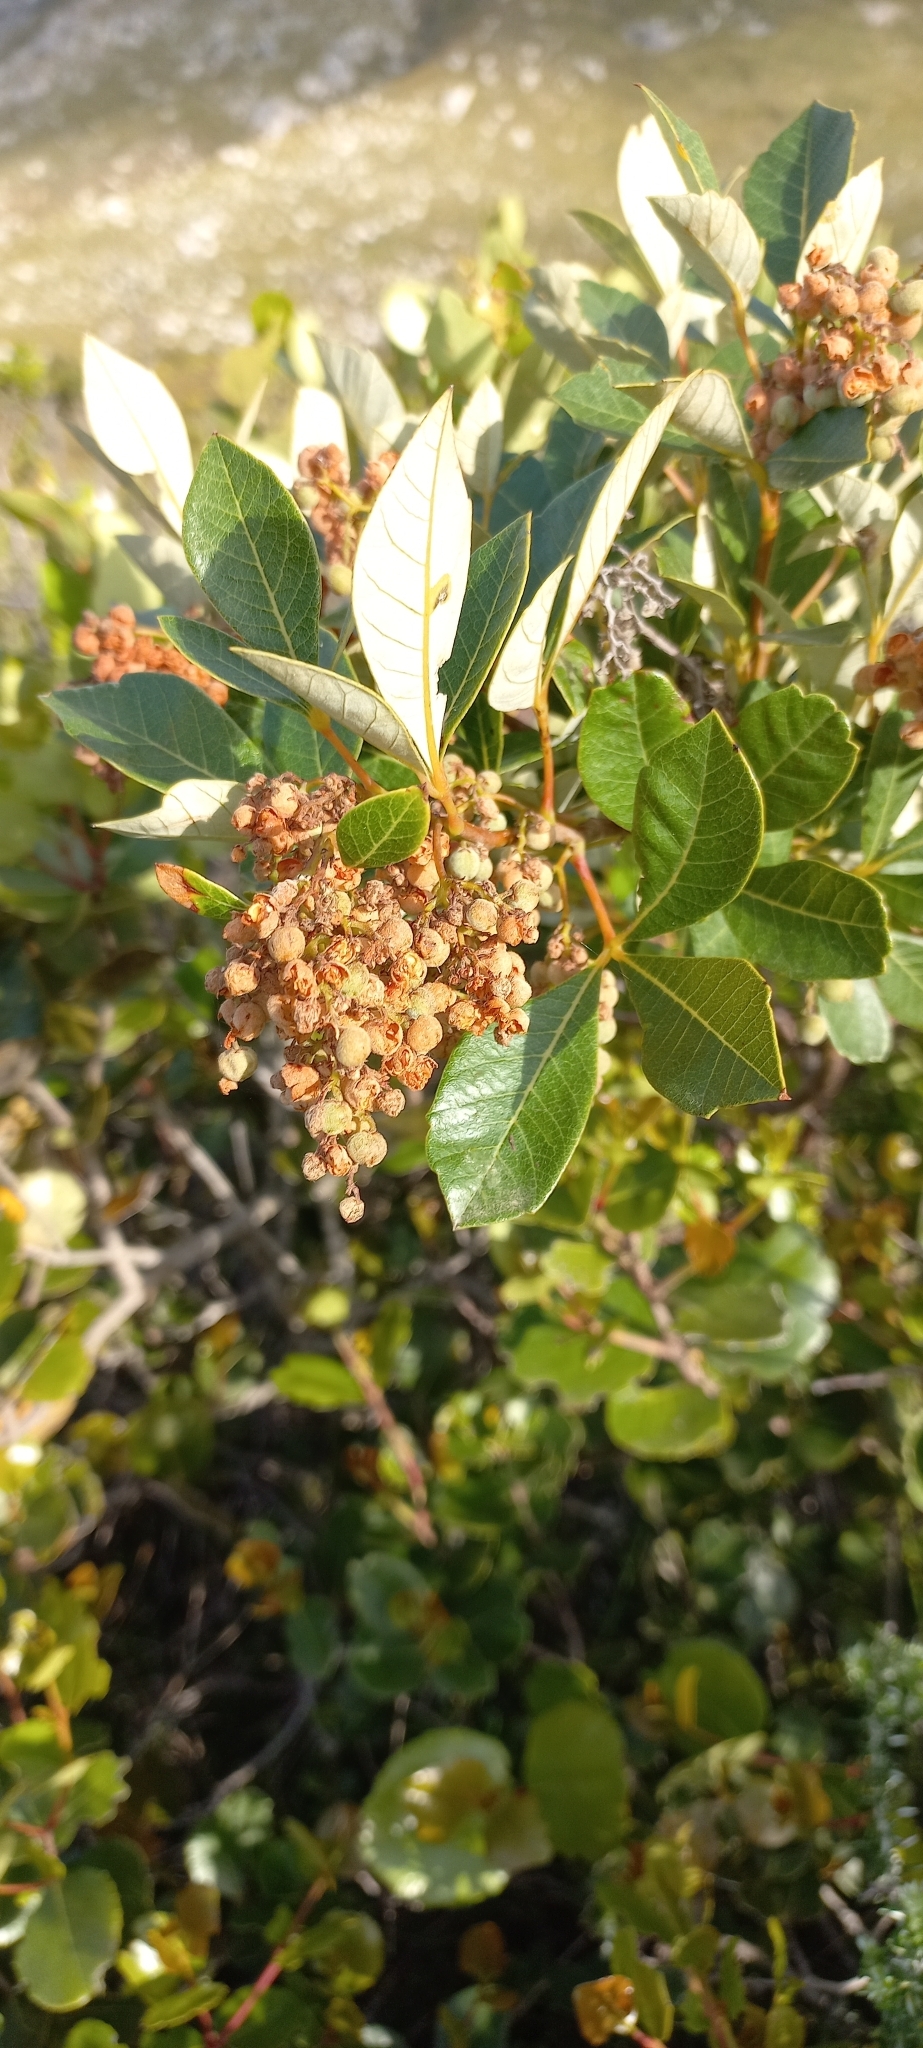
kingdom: Plantae
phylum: Tracheophyta
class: Magnoliopsida
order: Sapindales
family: Anacardiaceae
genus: Searsia
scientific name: Searsia tomentosa
